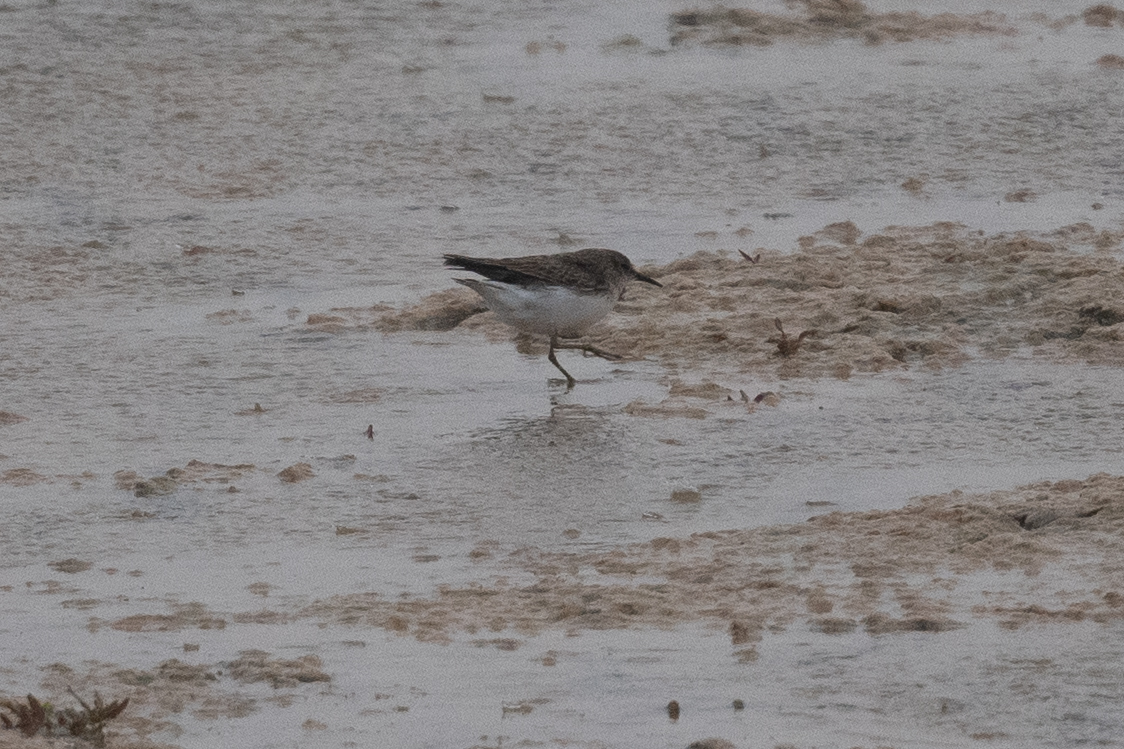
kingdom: Animalia
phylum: Chordata
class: Aves
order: Charadriiformes
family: Scolopacidae
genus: Calidris
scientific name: Calidris minutilla
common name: Least sandpiper
